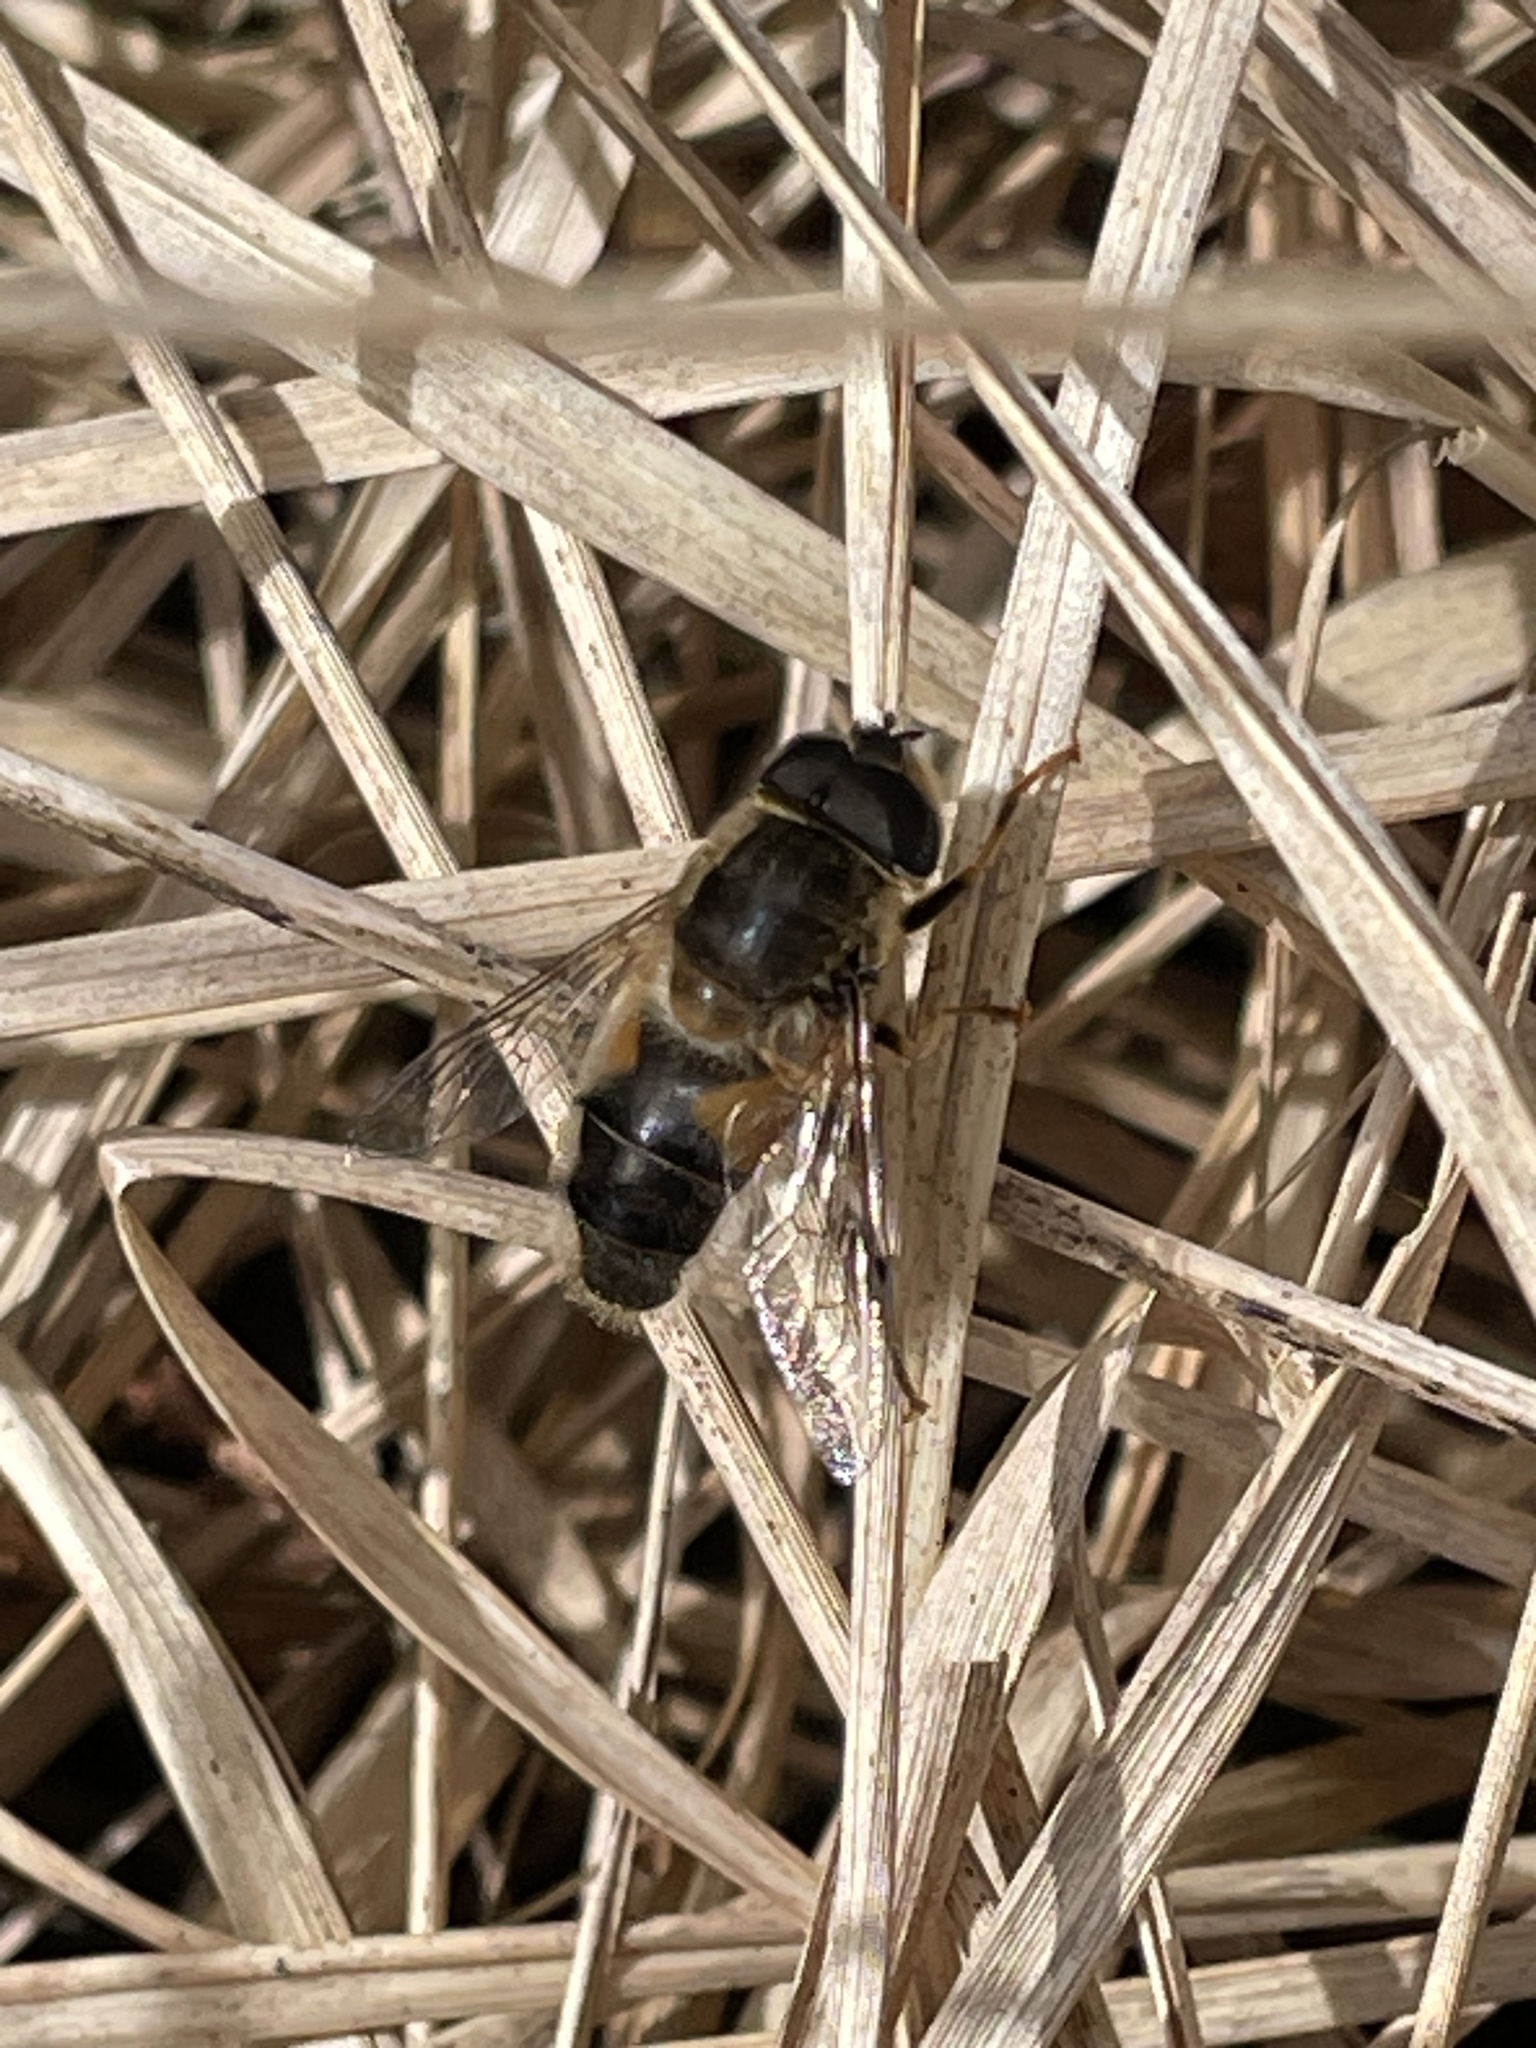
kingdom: Animalia
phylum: Arthropoda
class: Insecta
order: Diptera
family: Syrphidae
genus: Eristalis
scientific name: Eristalis pertinax
